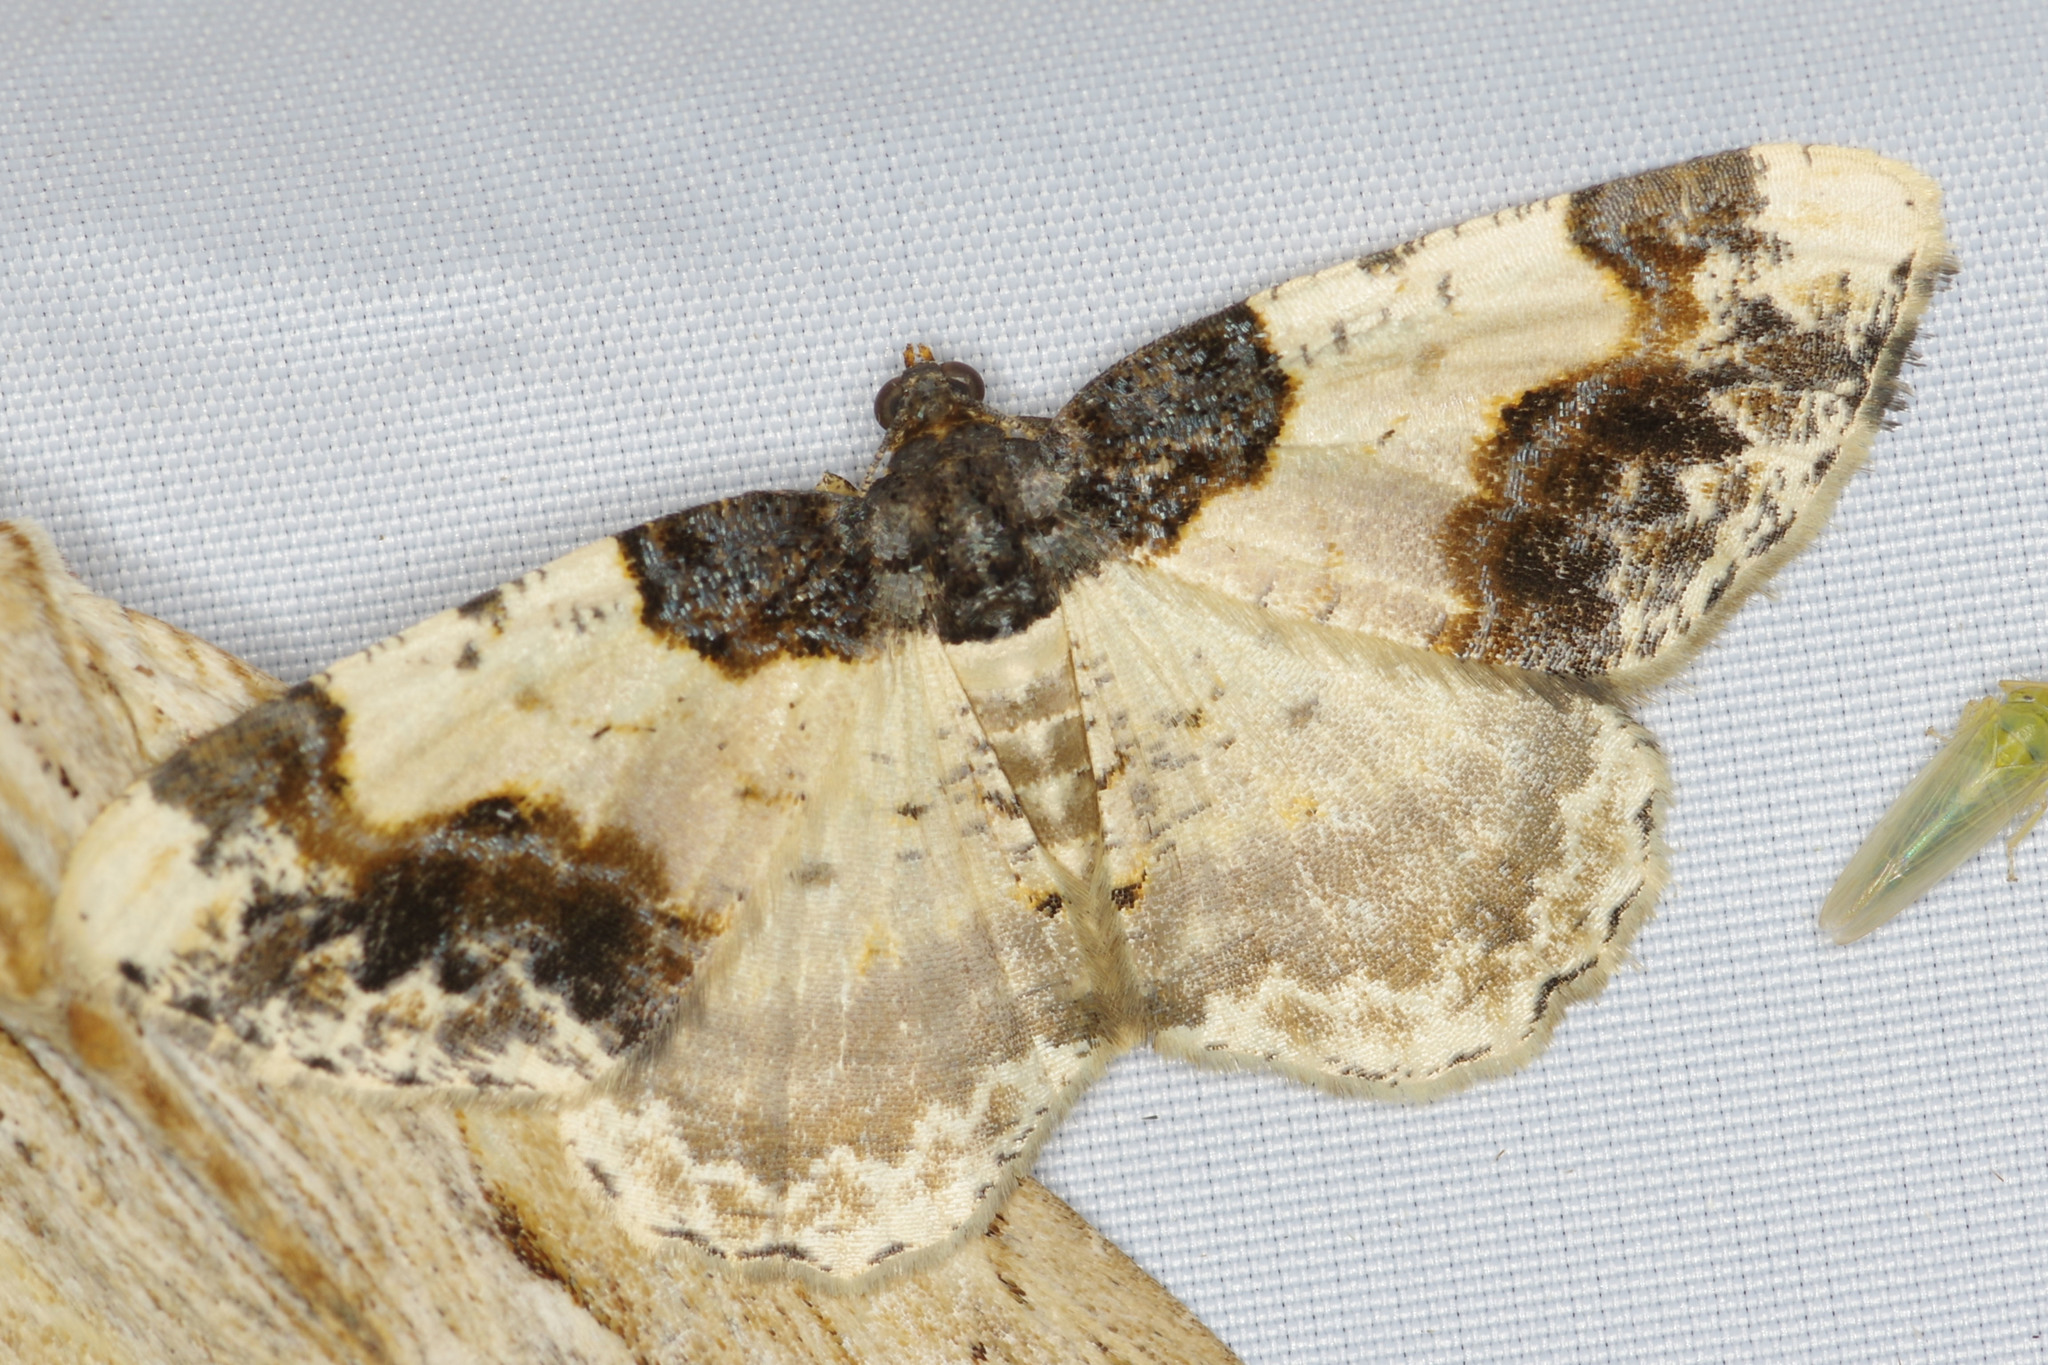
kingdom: Animalia
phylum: Arthropoda
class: Insecta
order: Lepidoptera
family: Geometridae
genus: Ligdia
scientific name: Ligdia adustata
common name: Scorched carpet
